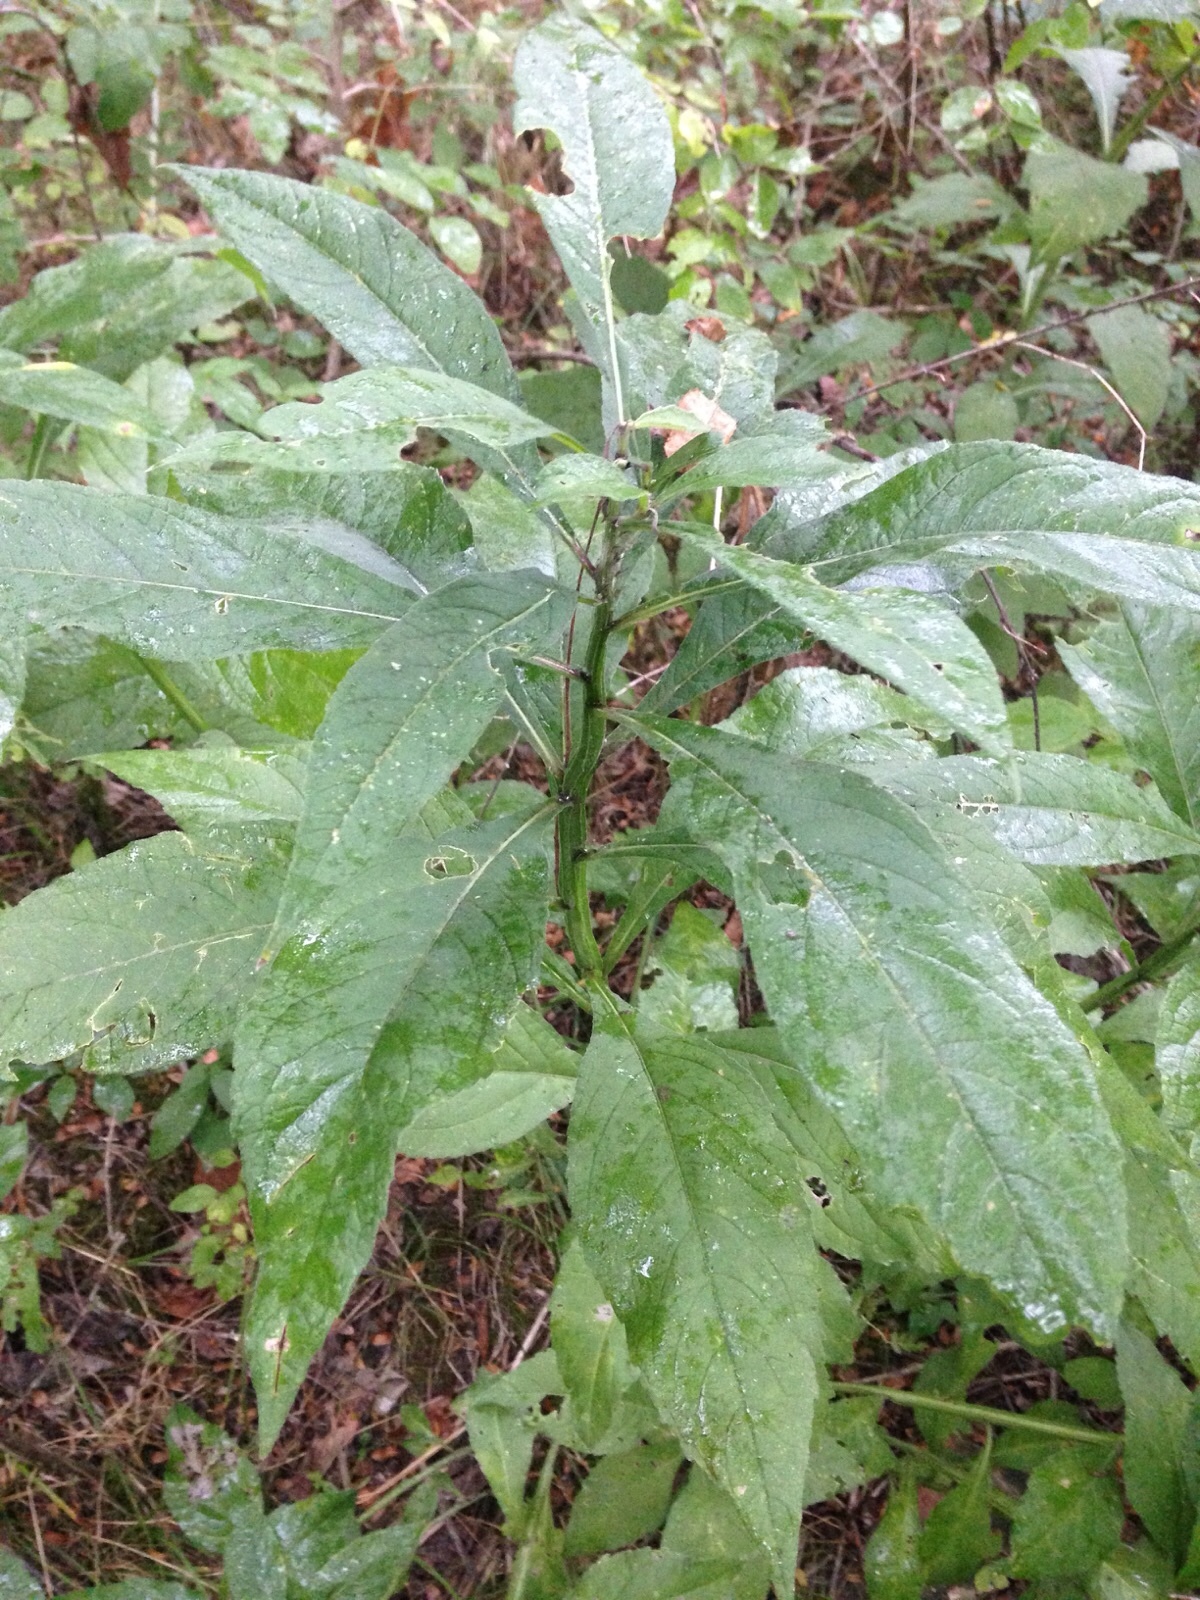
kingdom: Plantae
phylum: Tracheophyta
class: Magnoliopsida
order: Asterales
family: Asteraceae
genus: Verbesina
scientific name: Verbesina alternifolia
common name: Wingstem
